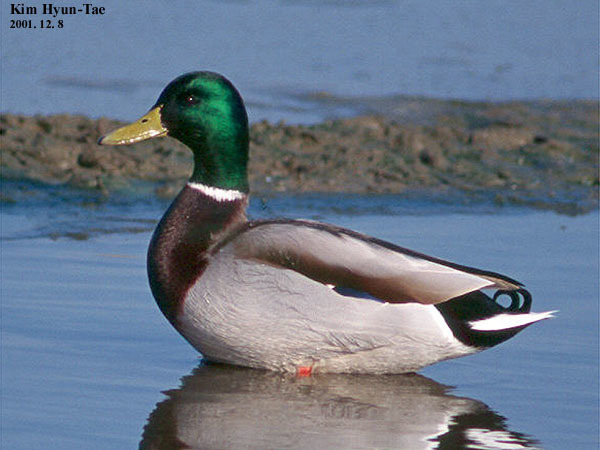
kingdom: Animalia
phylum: Chordata
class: Aves
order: Anseriformes
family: Anatidae
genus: Anas
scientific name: Anas platyrhynchos
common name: Mallard
